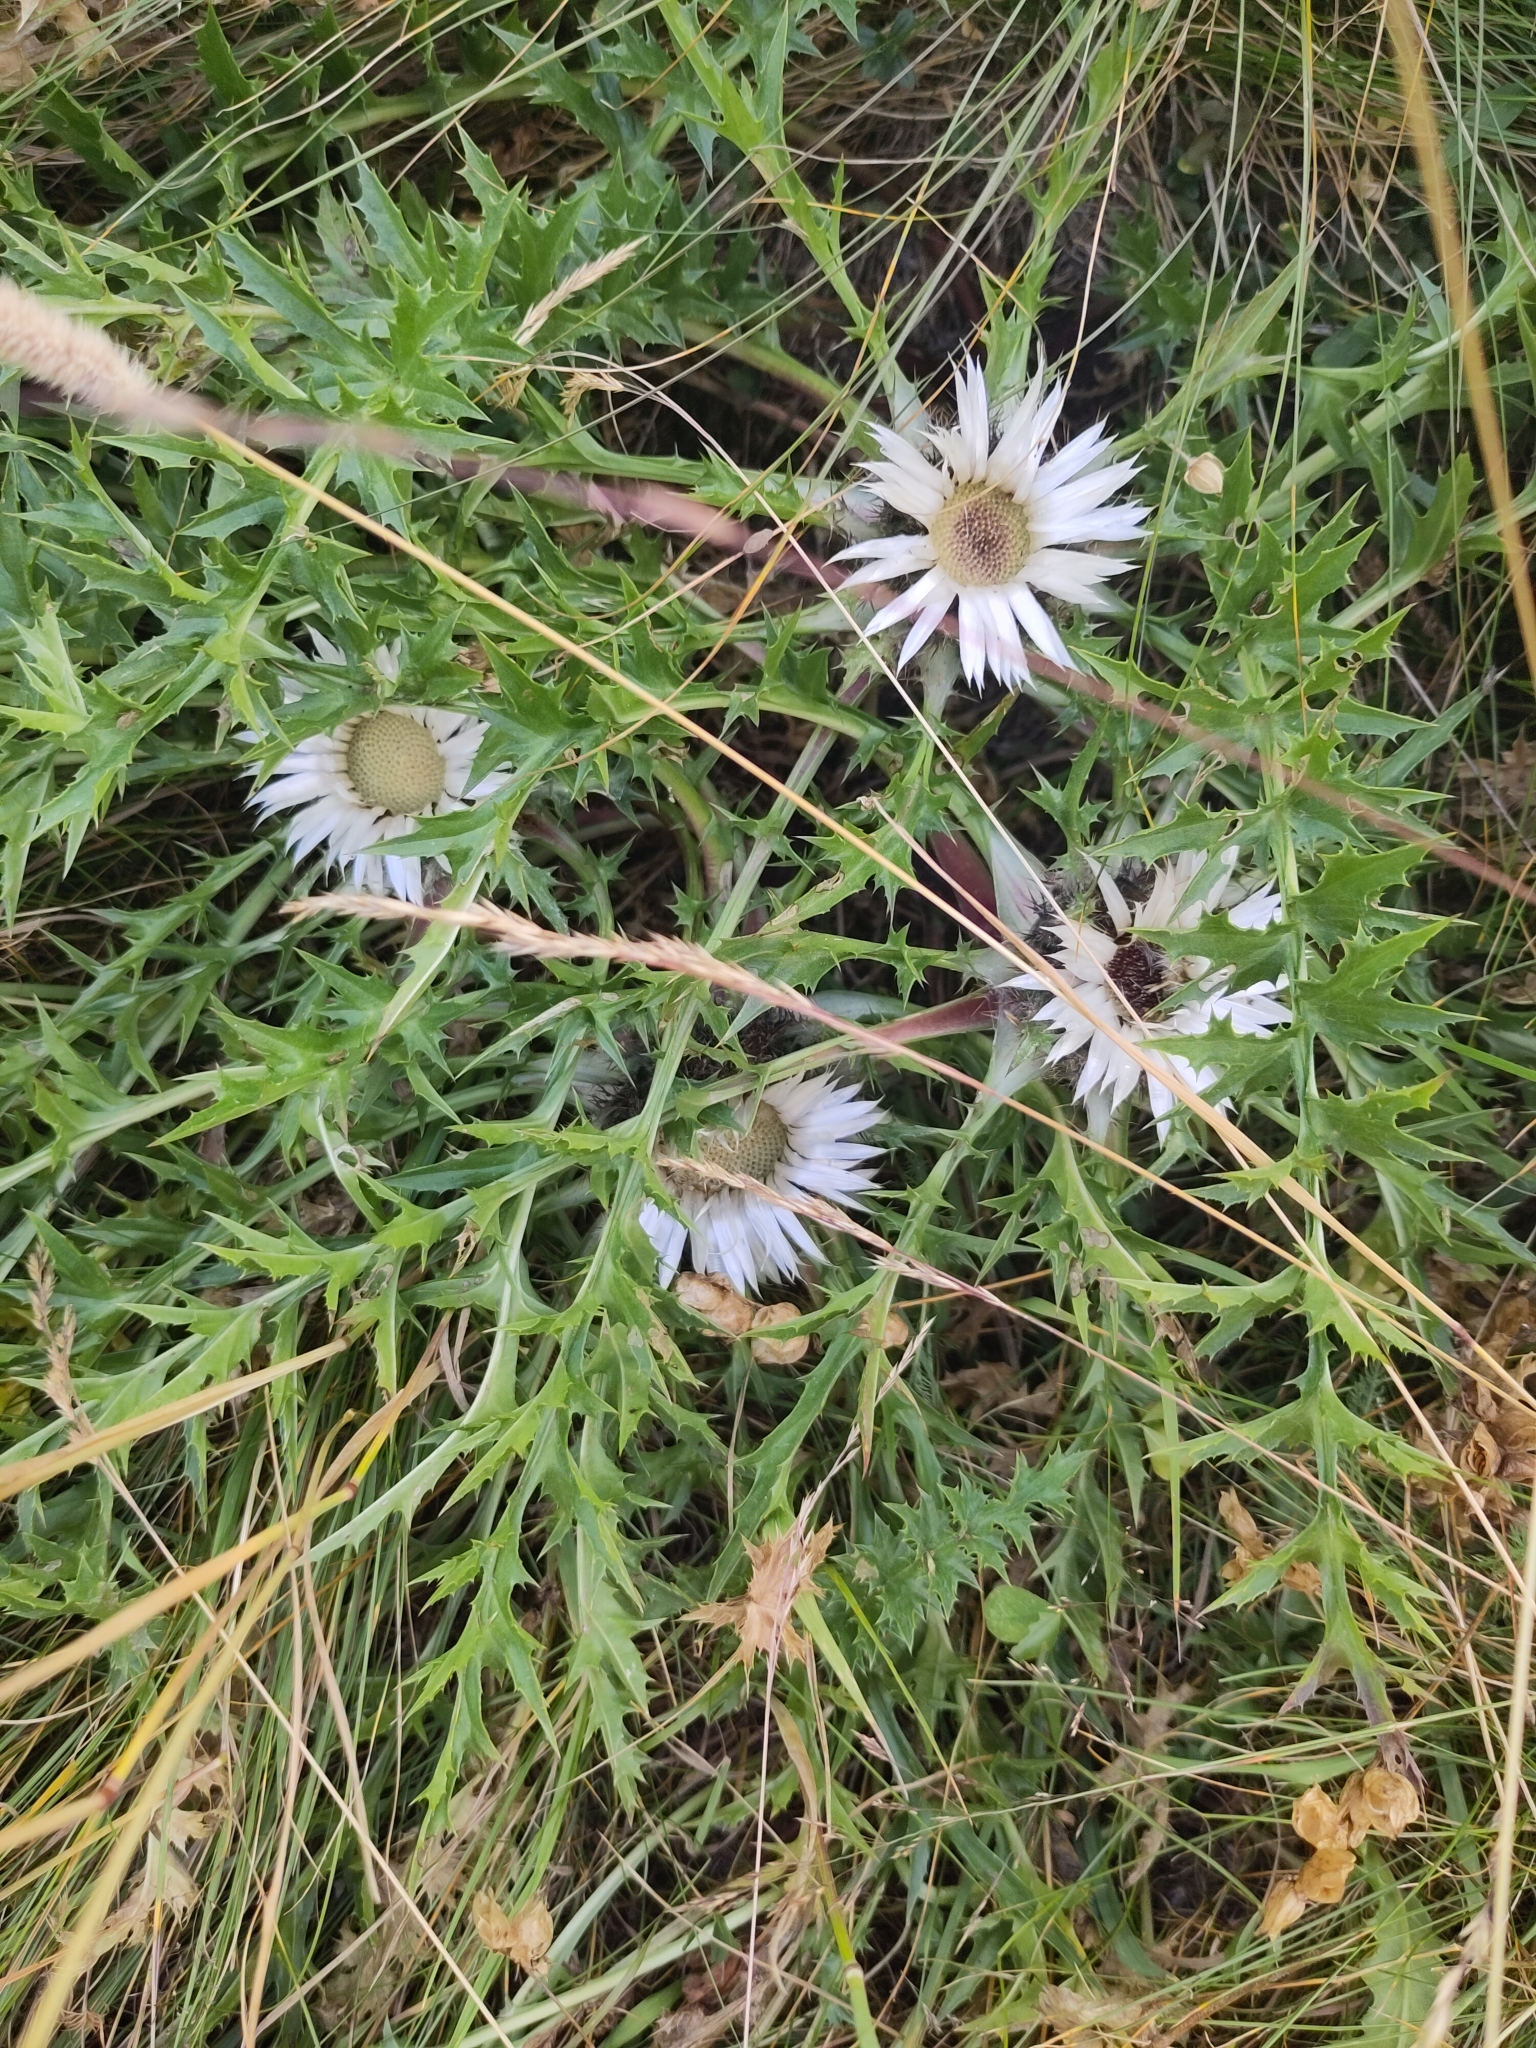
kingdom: Plantae
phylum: Tracheophyta
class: Magnoliopsida
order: Asterales
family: Asteraceae
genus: Carlina
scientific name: Carlina acaulis
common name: Stemless carline thistle
